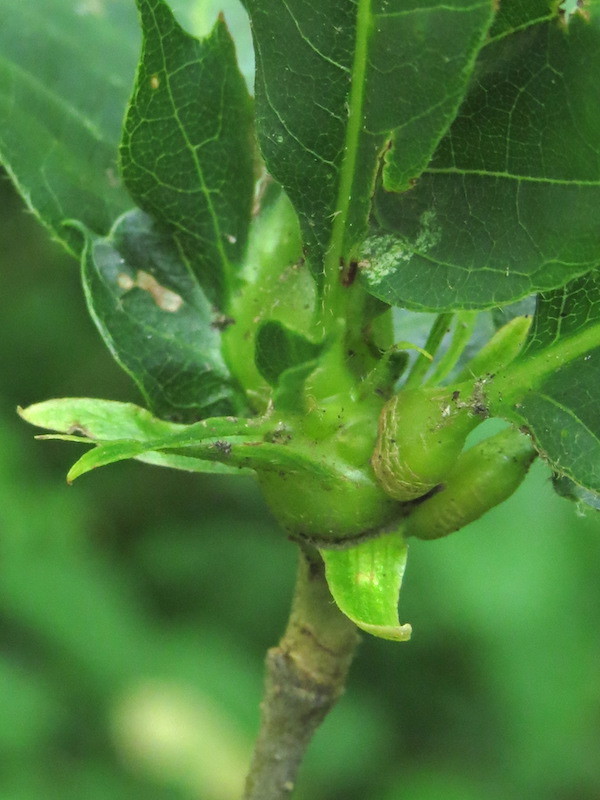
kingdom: Animalia
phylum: Arthropoda
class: Insecta
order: Hymenoptera
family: Cynipidae
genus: Dryocosmus
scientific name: Dryocosmus kuriphilus
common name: Asian chestnut gall wasp
